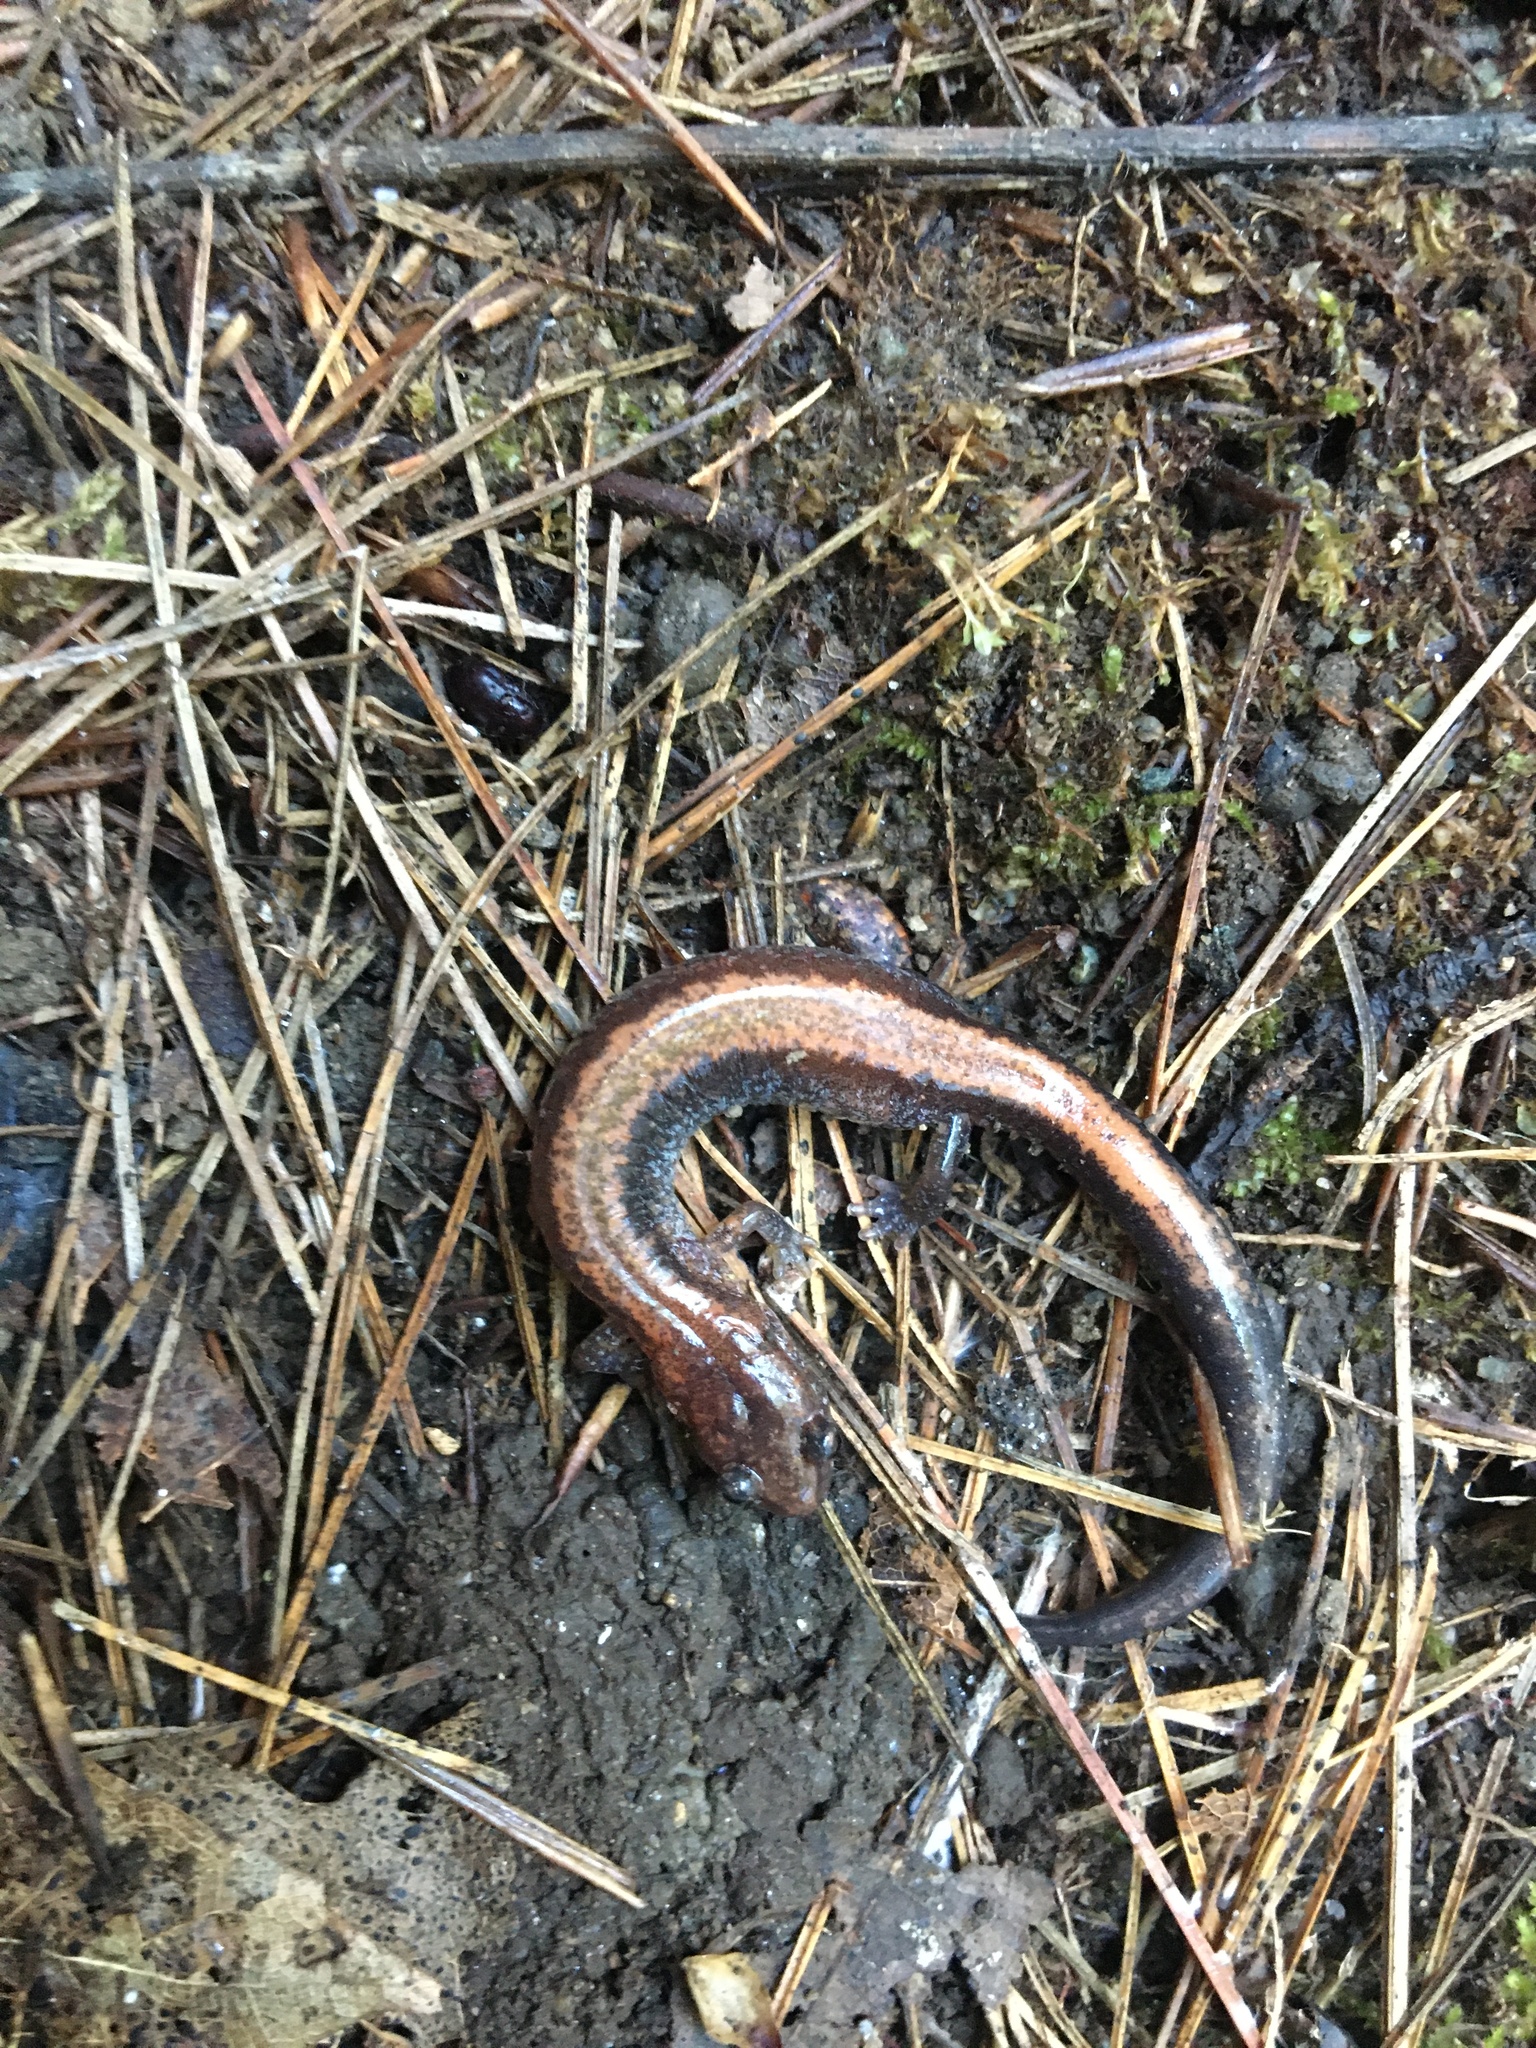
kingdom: Animalia
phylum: Chordata
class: Amphibia
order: Caudata
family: Plethodontidae
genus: Plethodon
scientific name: Plethodon cinereus
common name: Redback salamander
